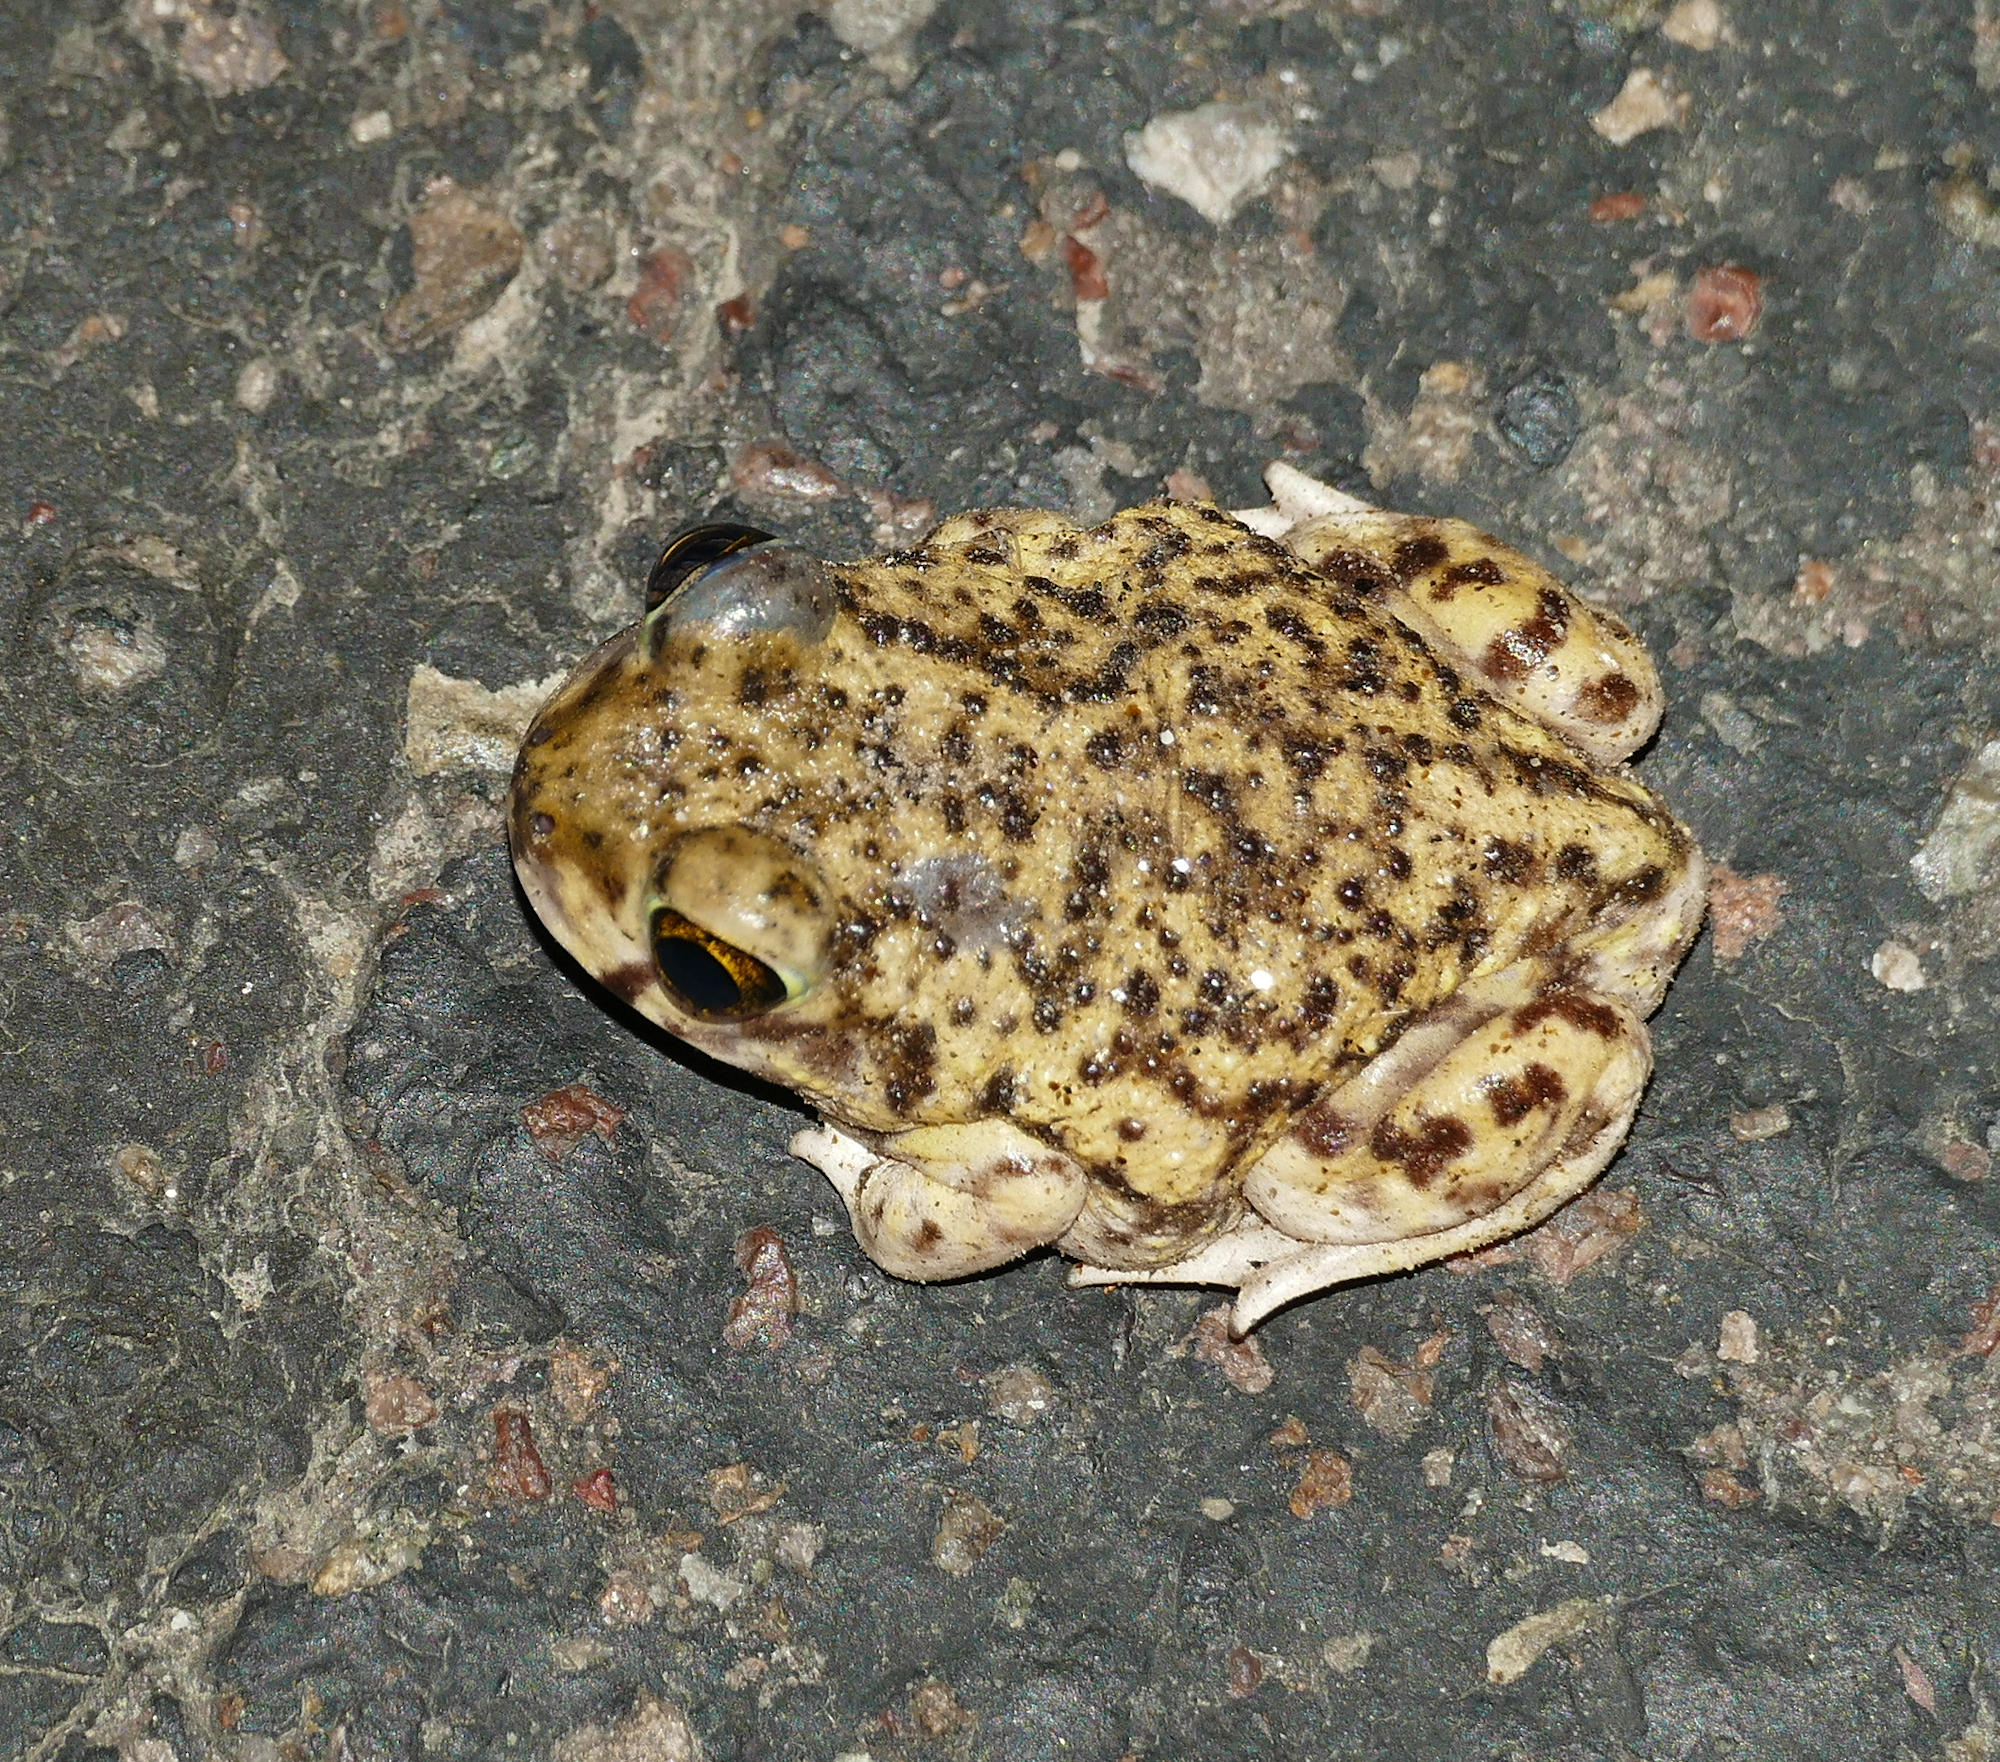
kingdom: Animalia
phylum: Chordata
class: Amphibia
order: Anura
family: Scaphiopodidae
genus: Scaphiopus
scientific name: Scaphiopus couchii
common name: Couch's spadefoot toad
